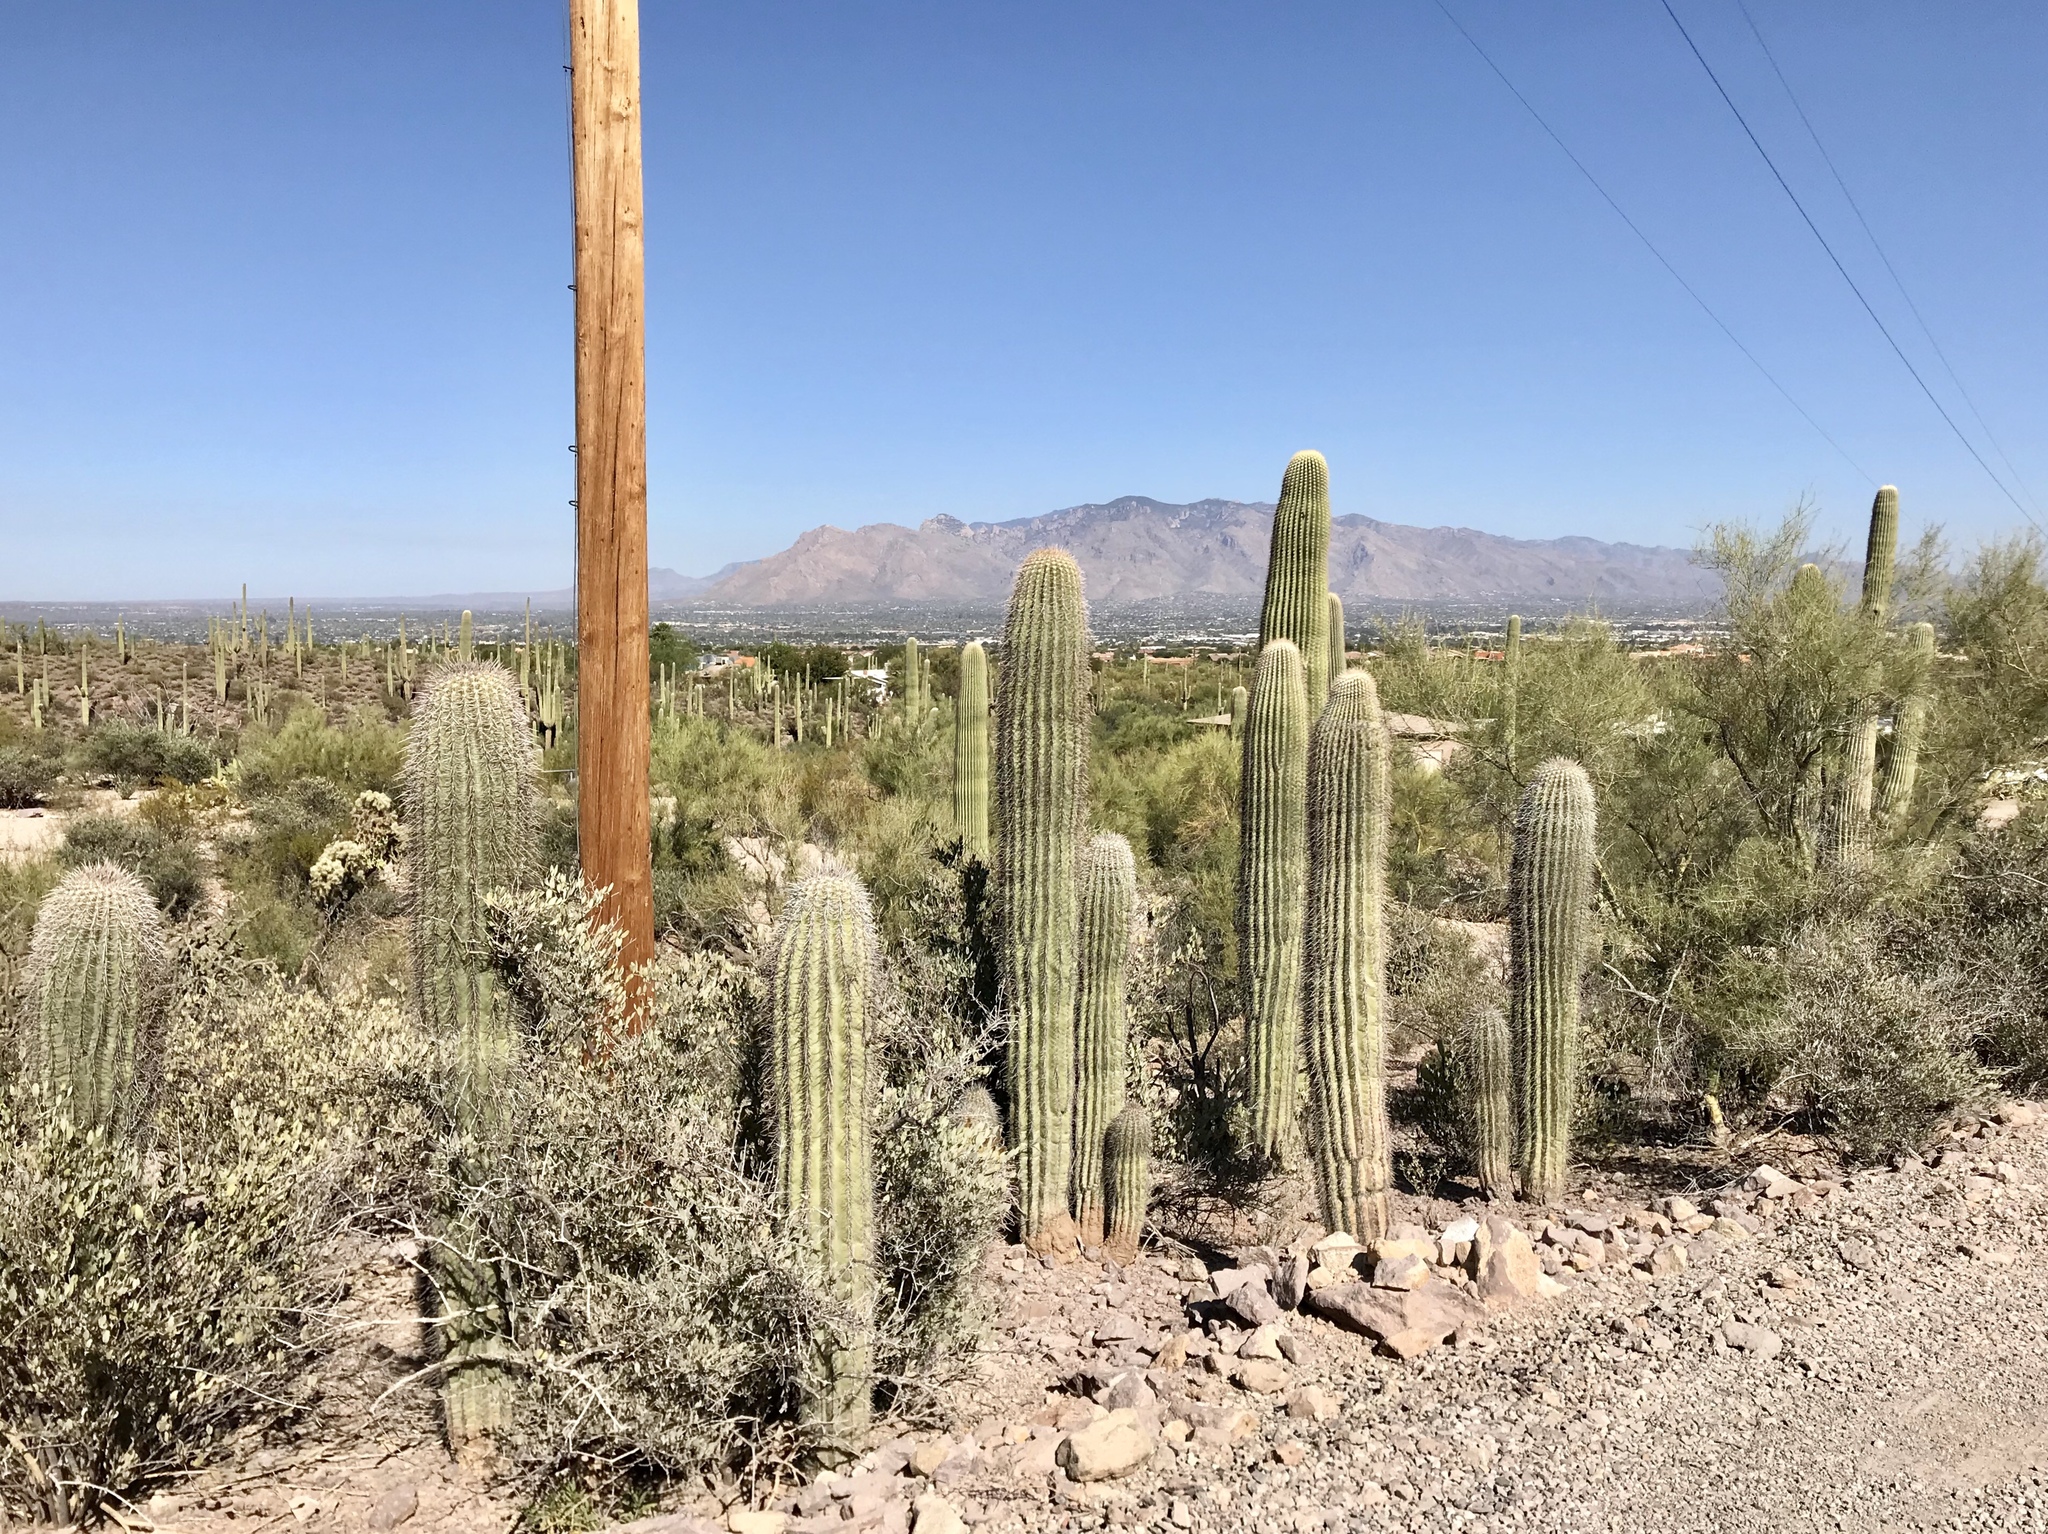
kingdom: Plantae
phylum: Tracheophyta
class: Magnoliopsida
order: Caryophyllales
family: Cactaceae
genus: Carnegiea
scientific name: Carnegiea gigantea
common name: Saguaro
